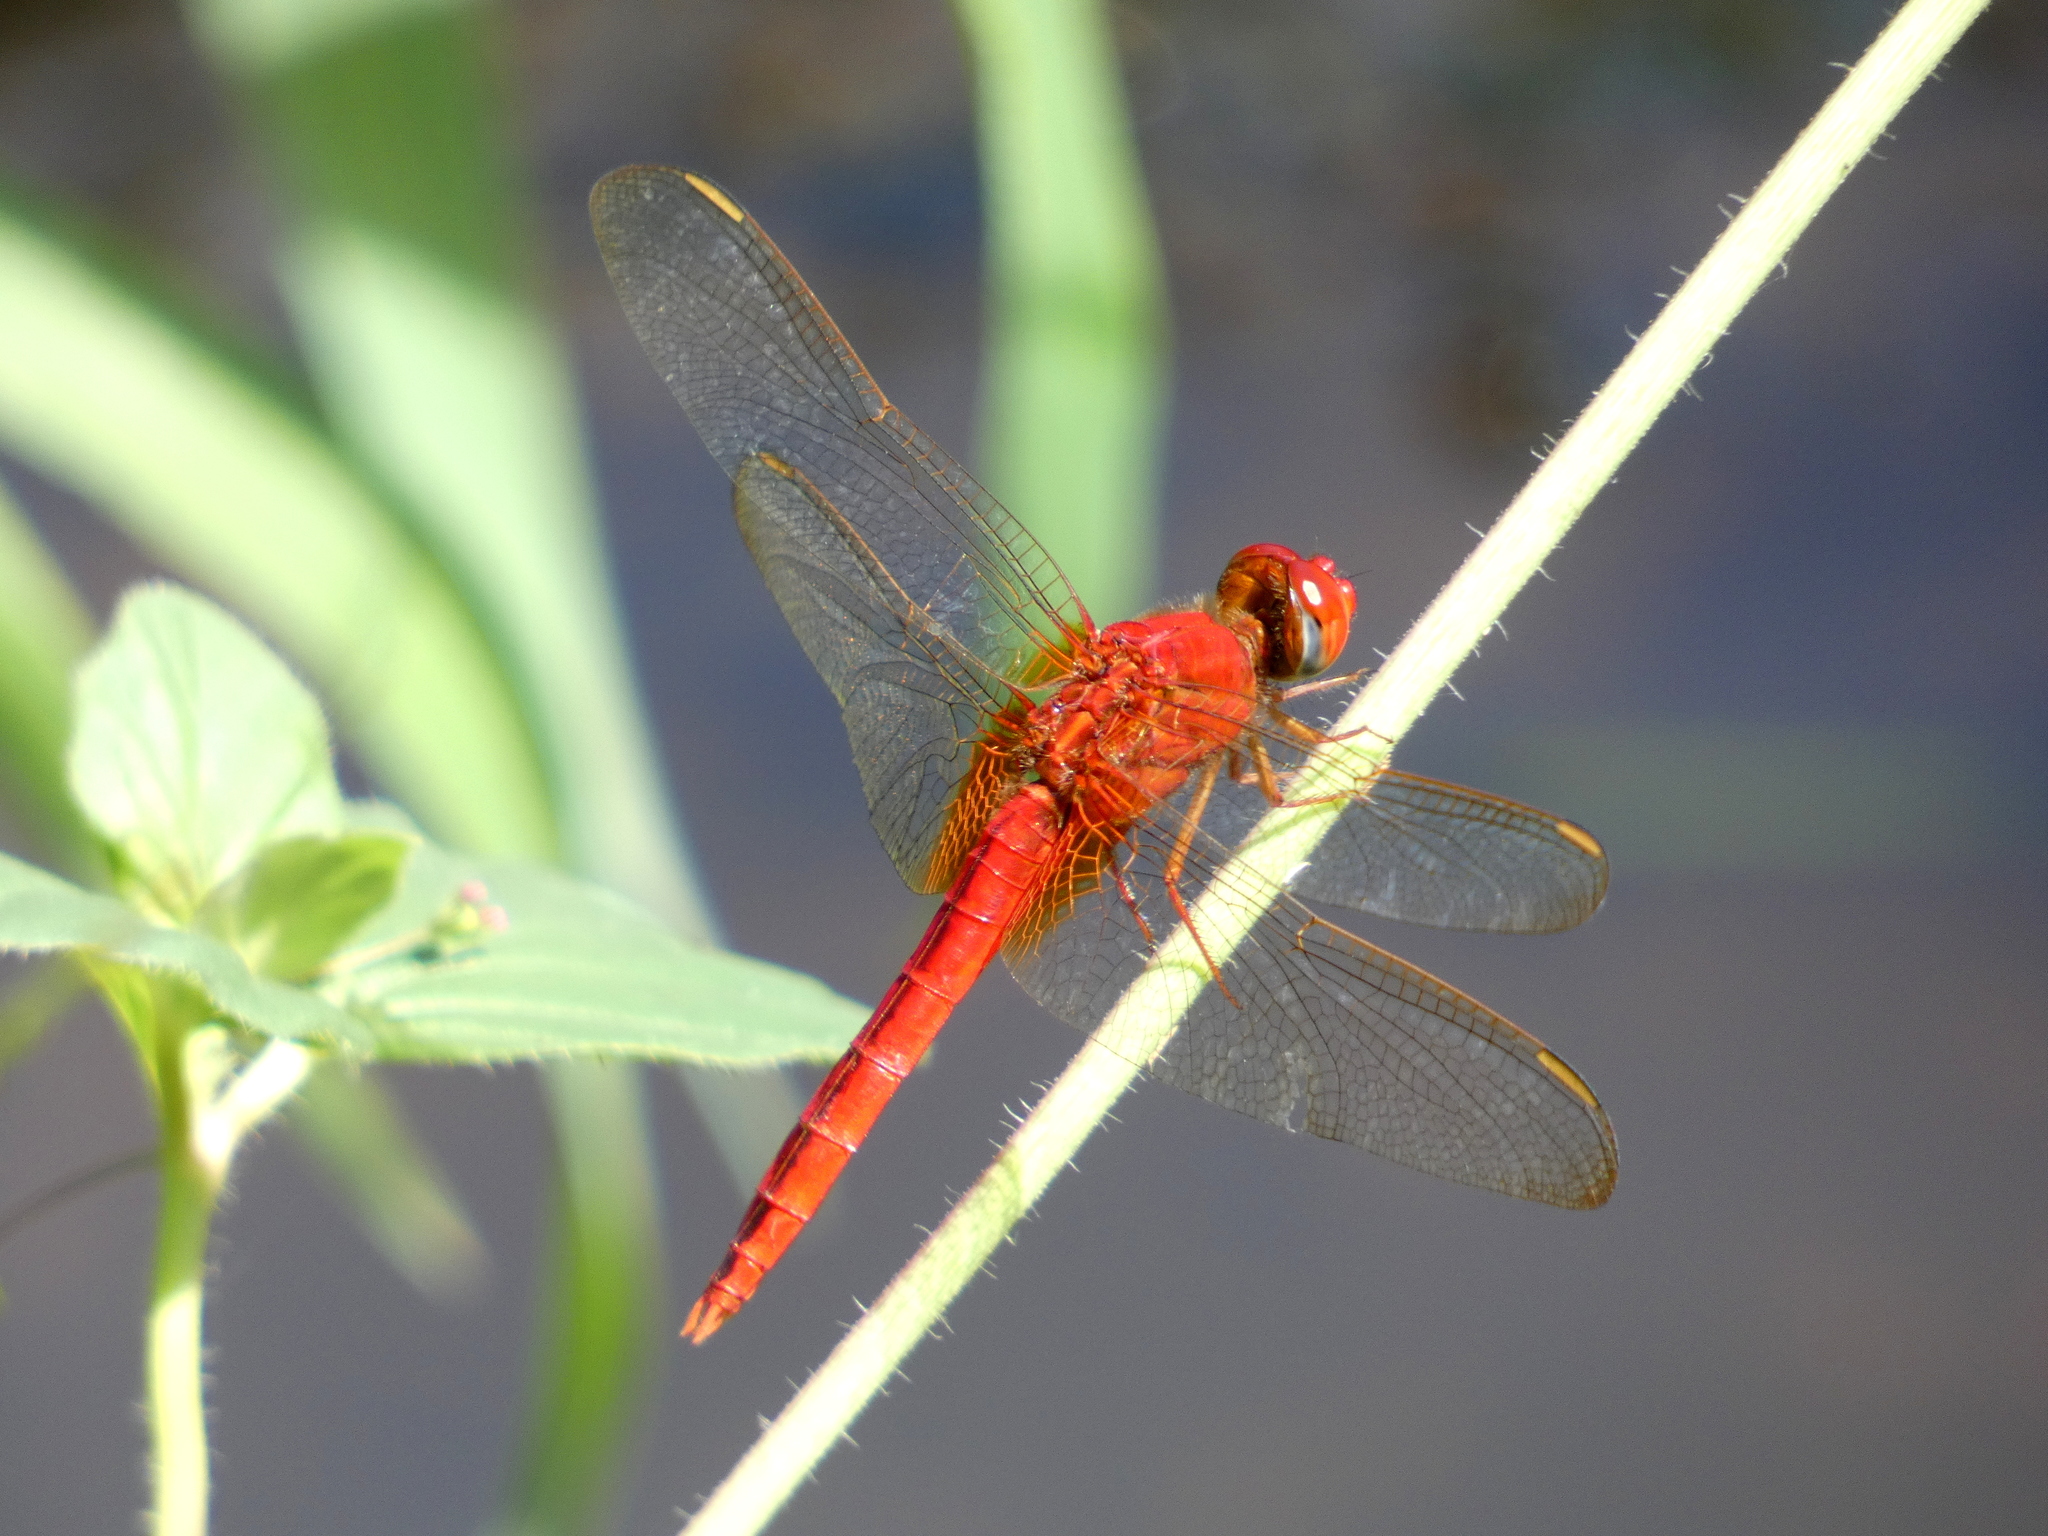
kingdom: Animalia
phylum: Arthropoda
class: Insecta
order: Odonata
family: Libellulidae
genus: Crocothemis
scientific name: Crocothemis servilia
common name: Scarlet skimmer
